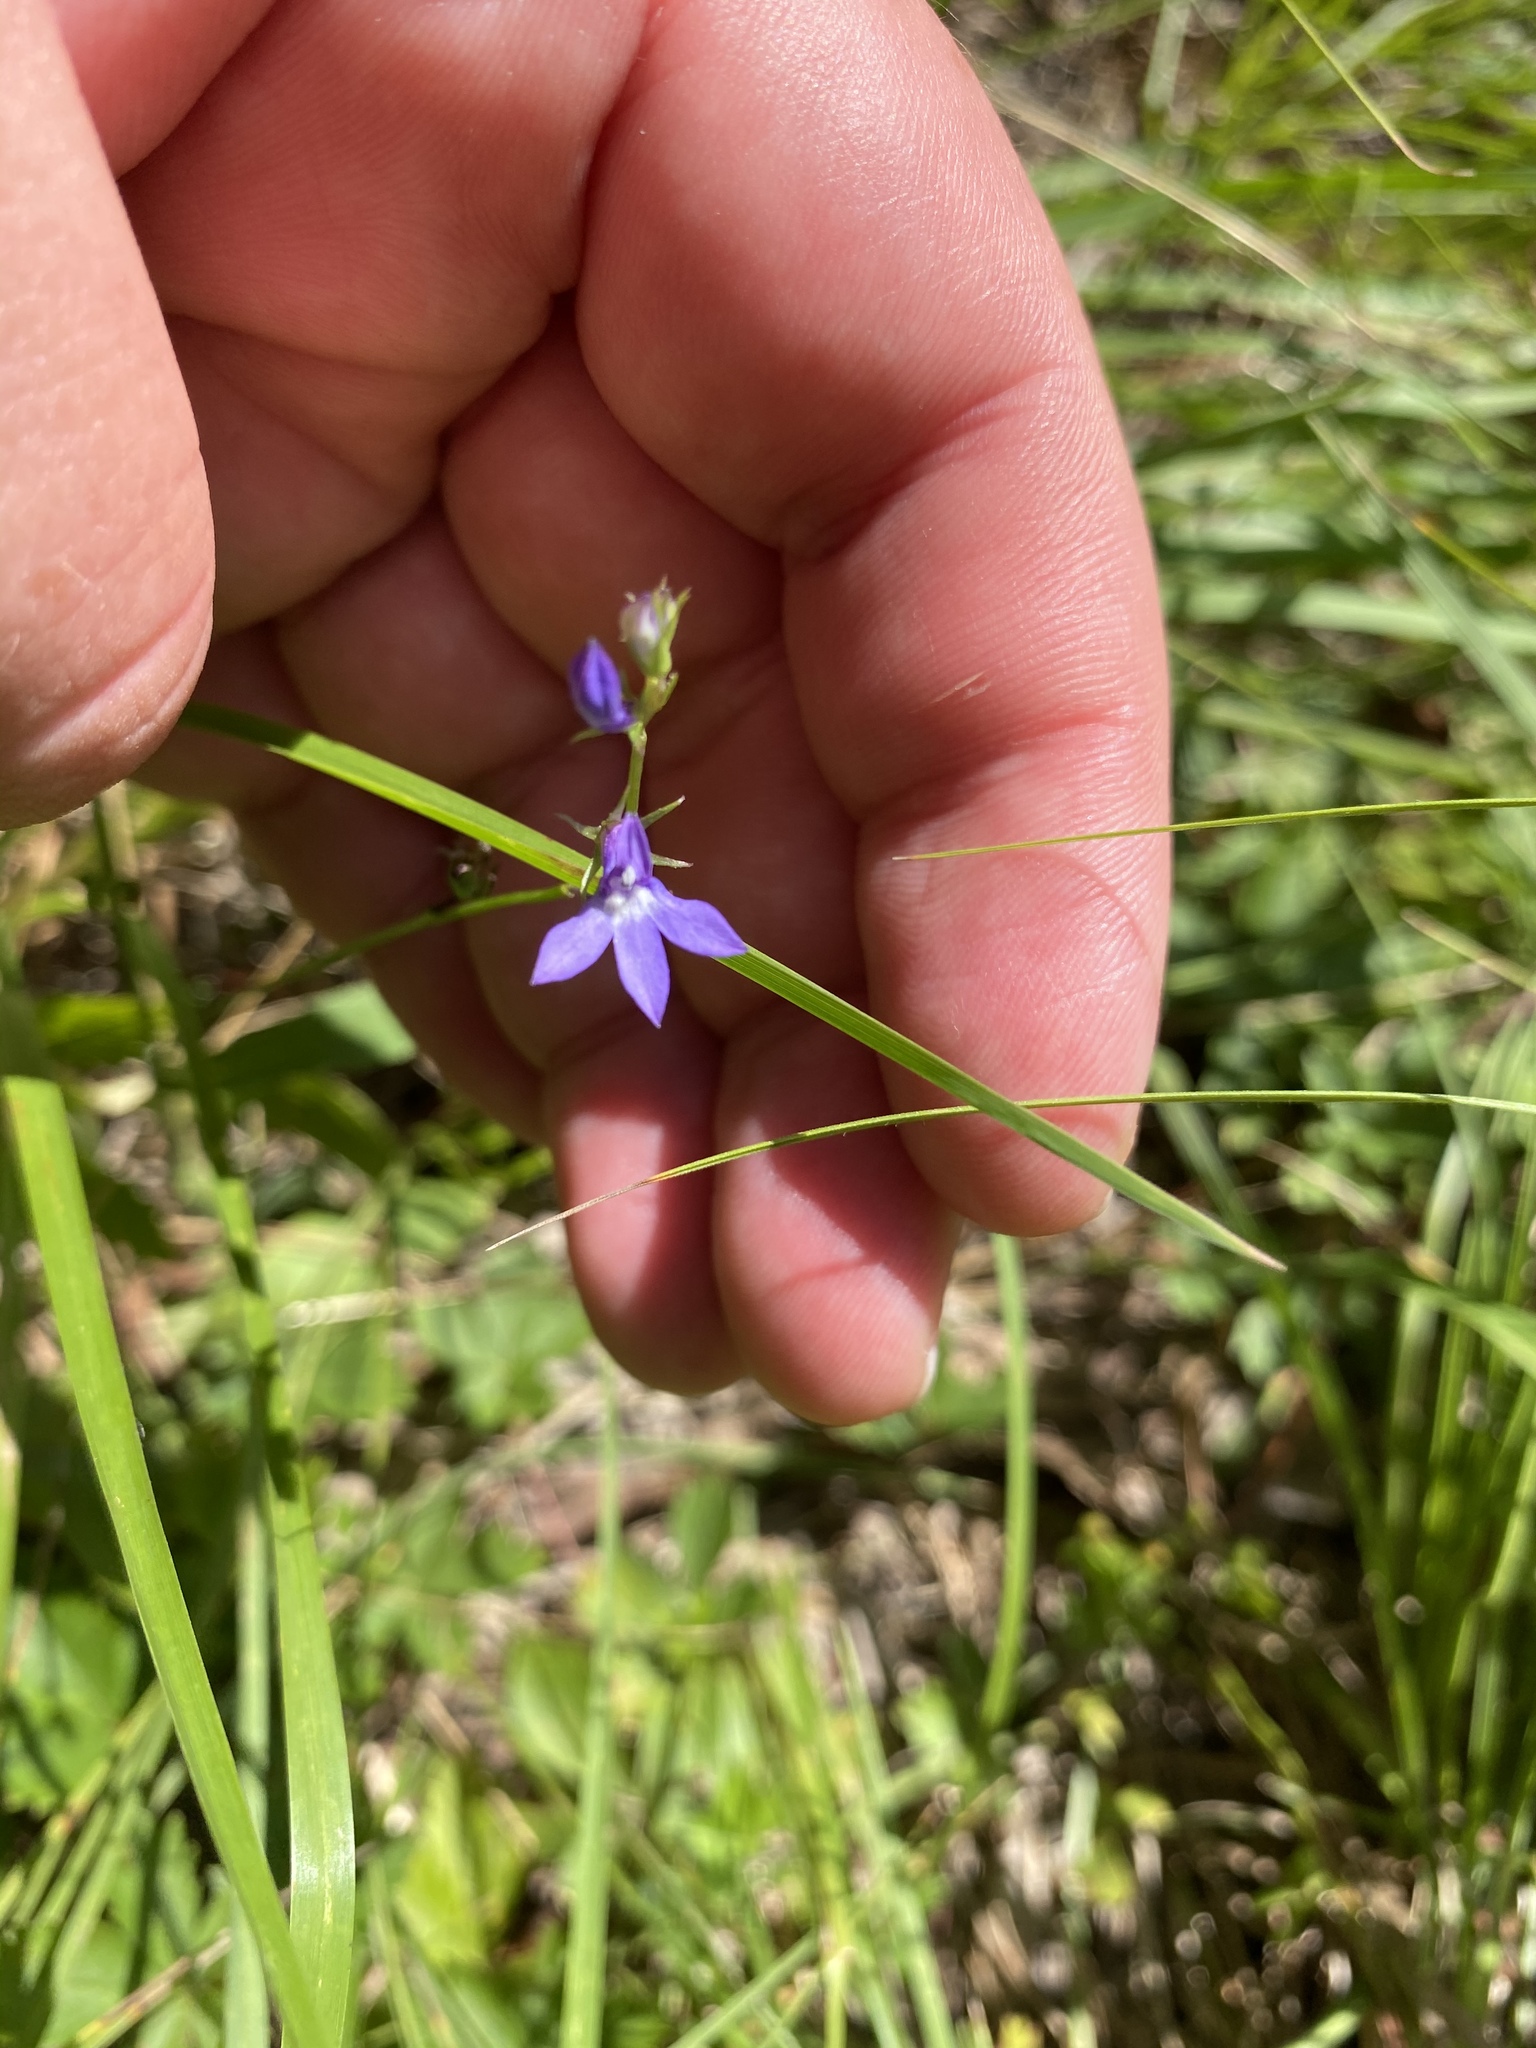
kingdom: Plantae
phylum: Tracheophyta
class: Magnoliopsida
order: Asterales
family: Campanulaceae
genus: Lobelia
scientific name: Lobelia spicata
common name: Pale-spike lobelia
